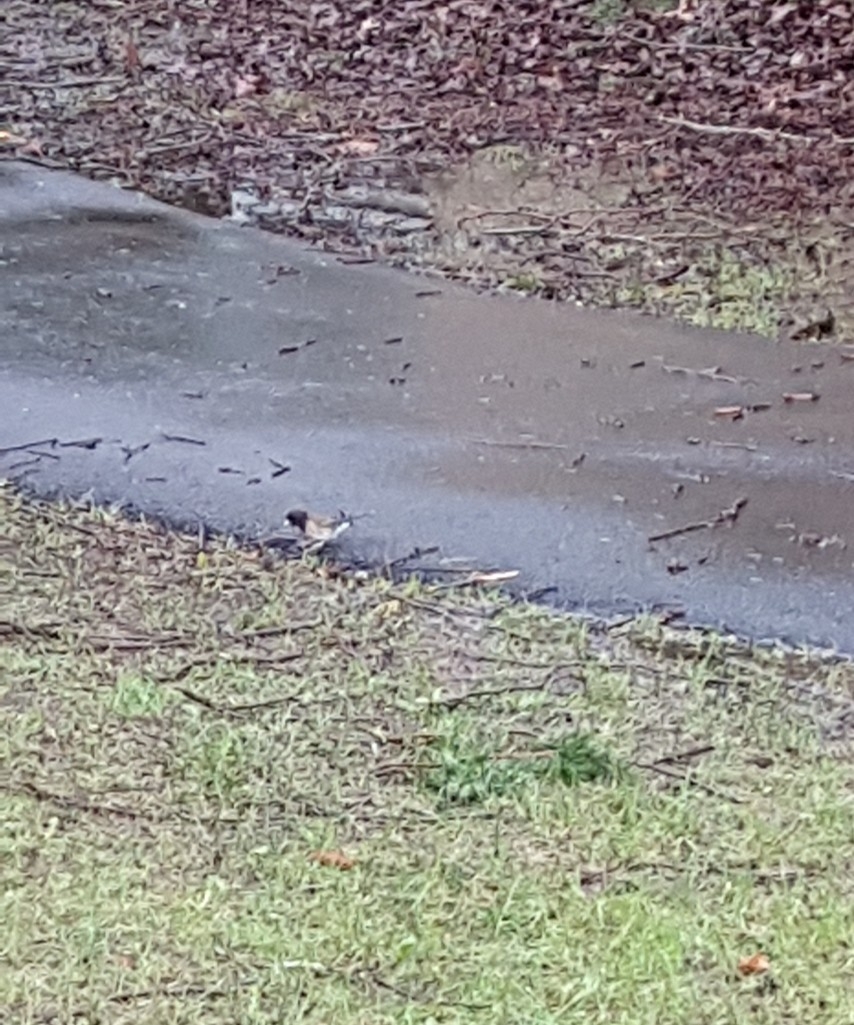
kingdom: Animalia
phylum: Chordata
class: Aves
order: Passeriformes
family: Passerellidae
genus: Junco
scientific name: Junco hyemalis
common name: Dark-eyed junco
